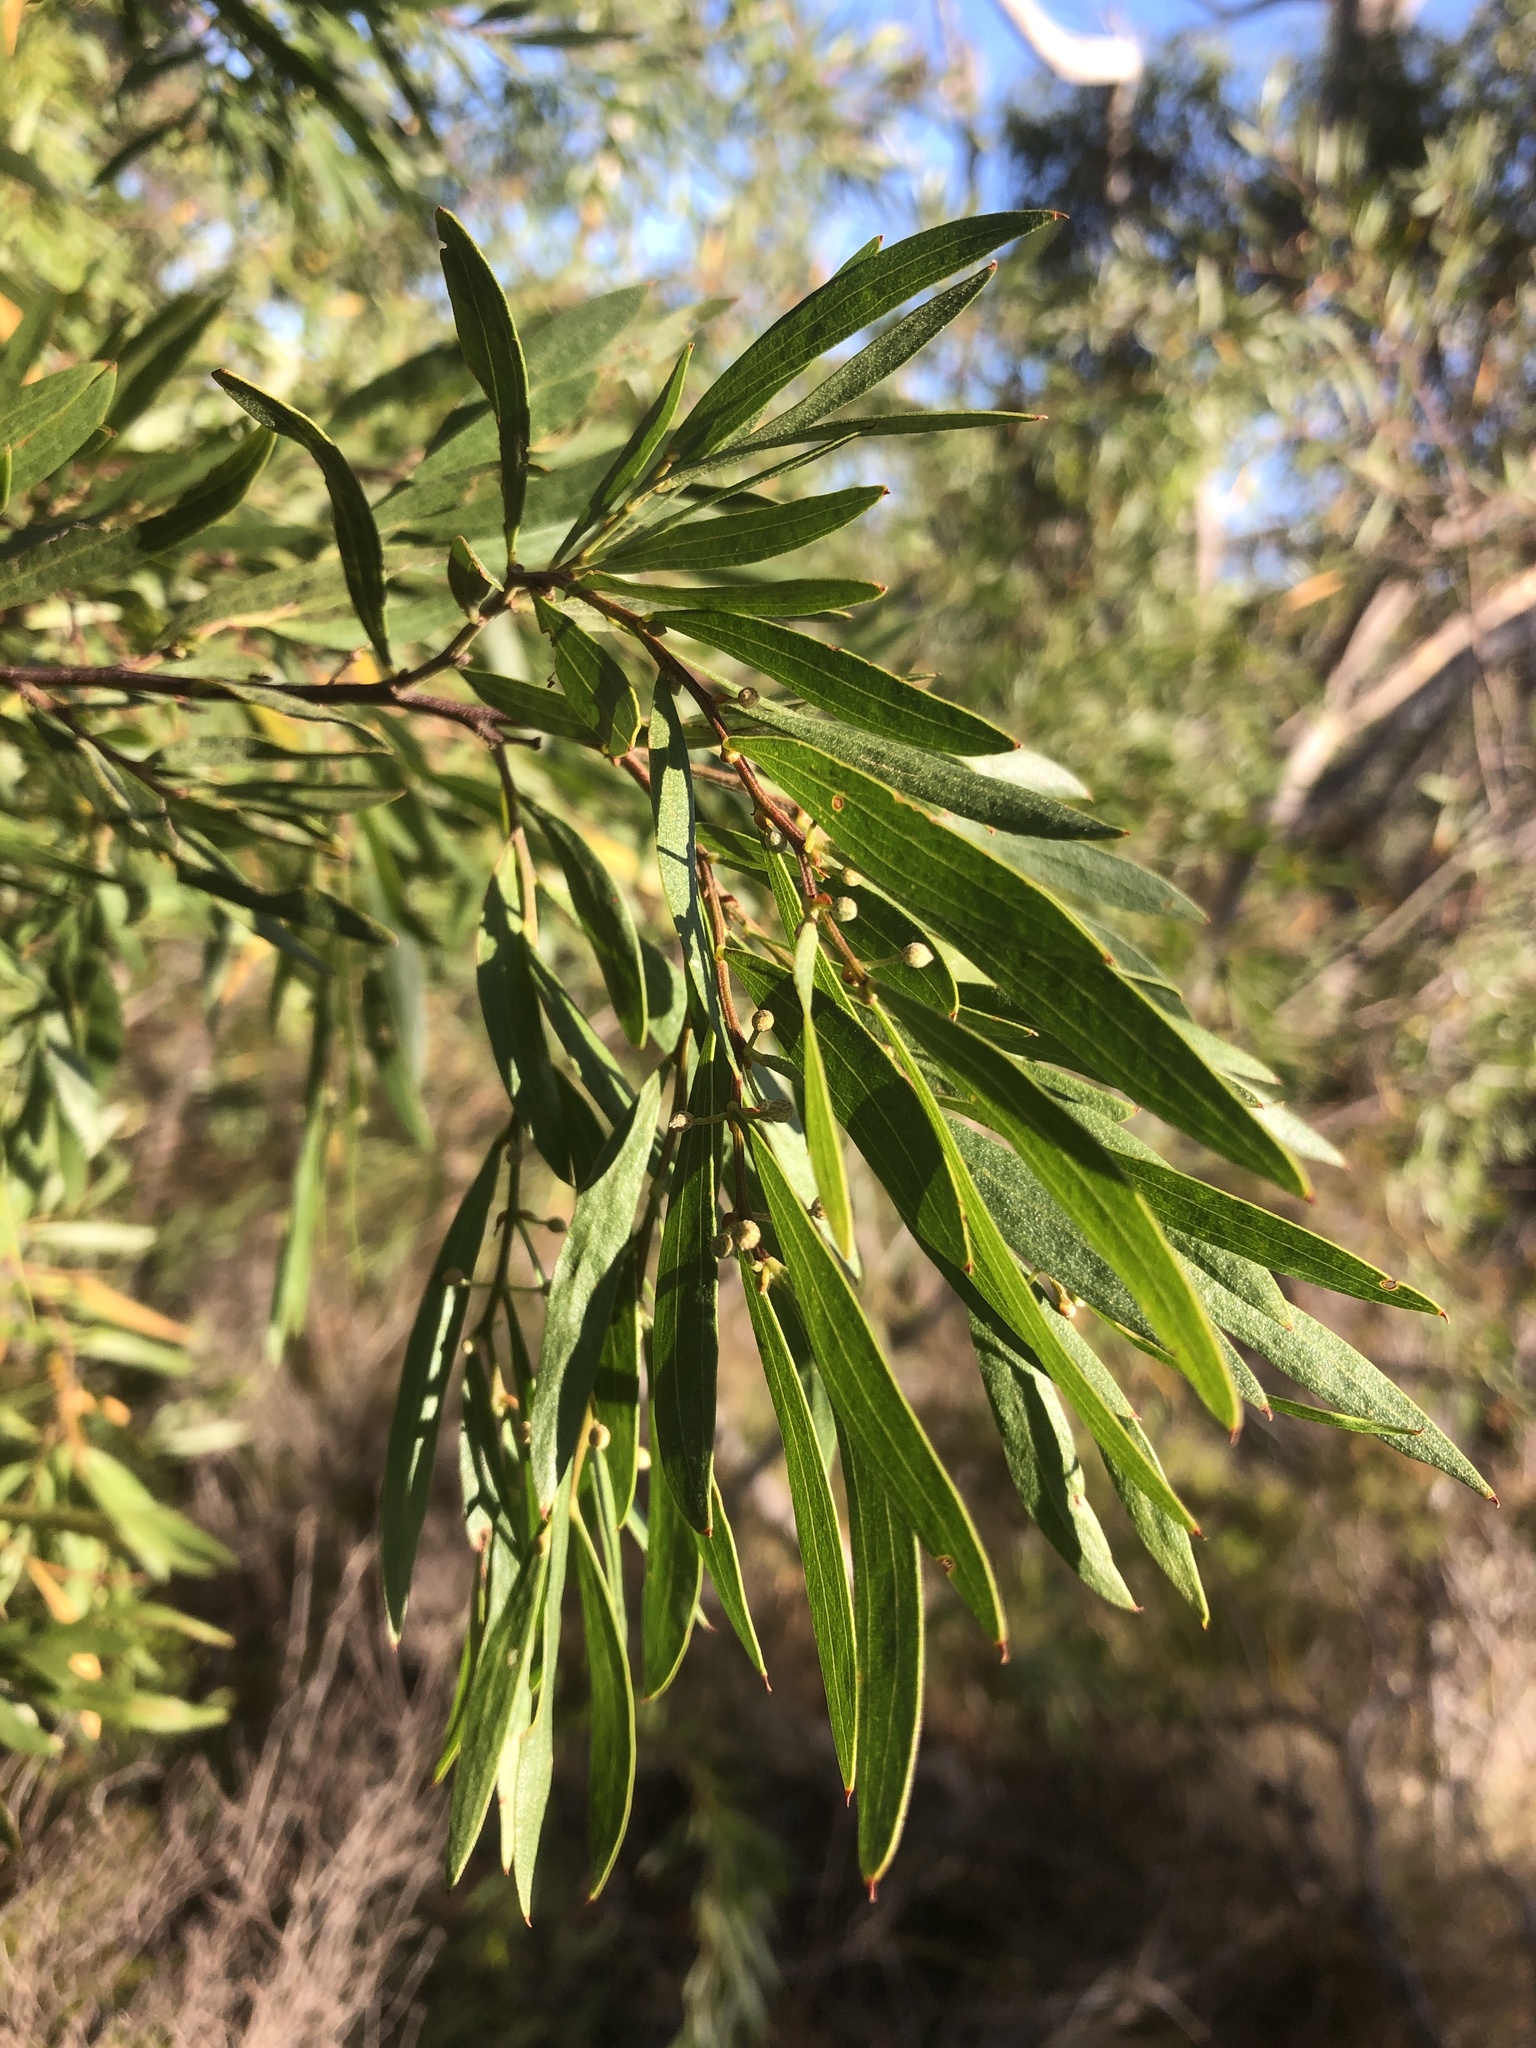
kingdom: Plantae
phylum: Tracheophyta
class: Magnoliopsida
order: Fabales
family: Fabaceae
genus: Acacia
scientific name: Acacia verniciflua
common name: Varnish wattle
